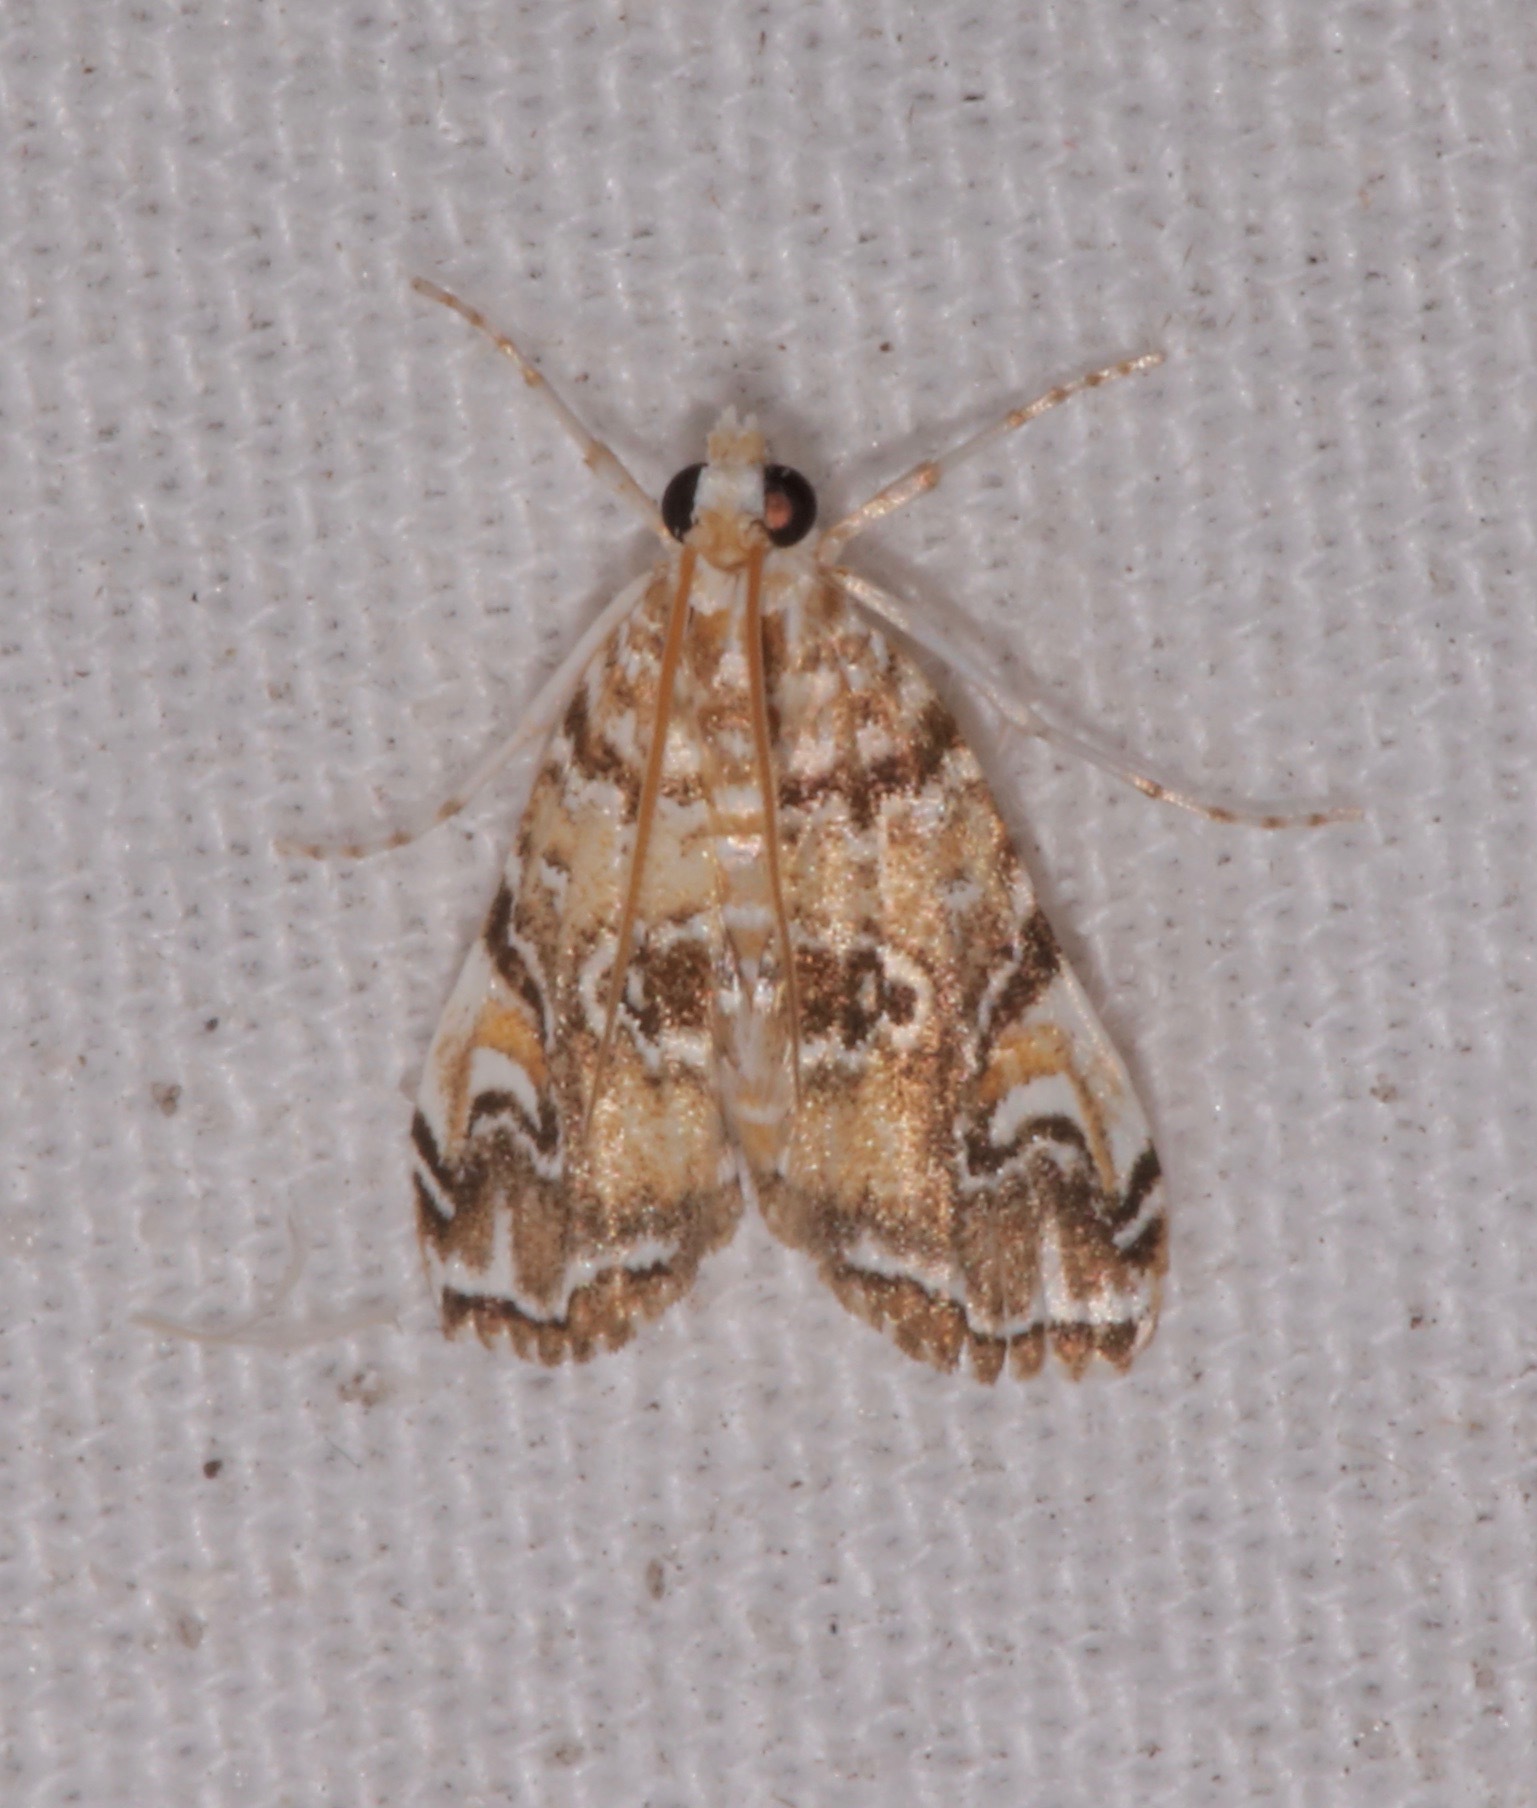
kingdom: Animalia
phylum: Arthropoda
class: Insecta
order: Lepidoptera
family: Crambidae
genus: Elophila
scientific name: Elophila gyralis
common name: Waterlily borer moth
